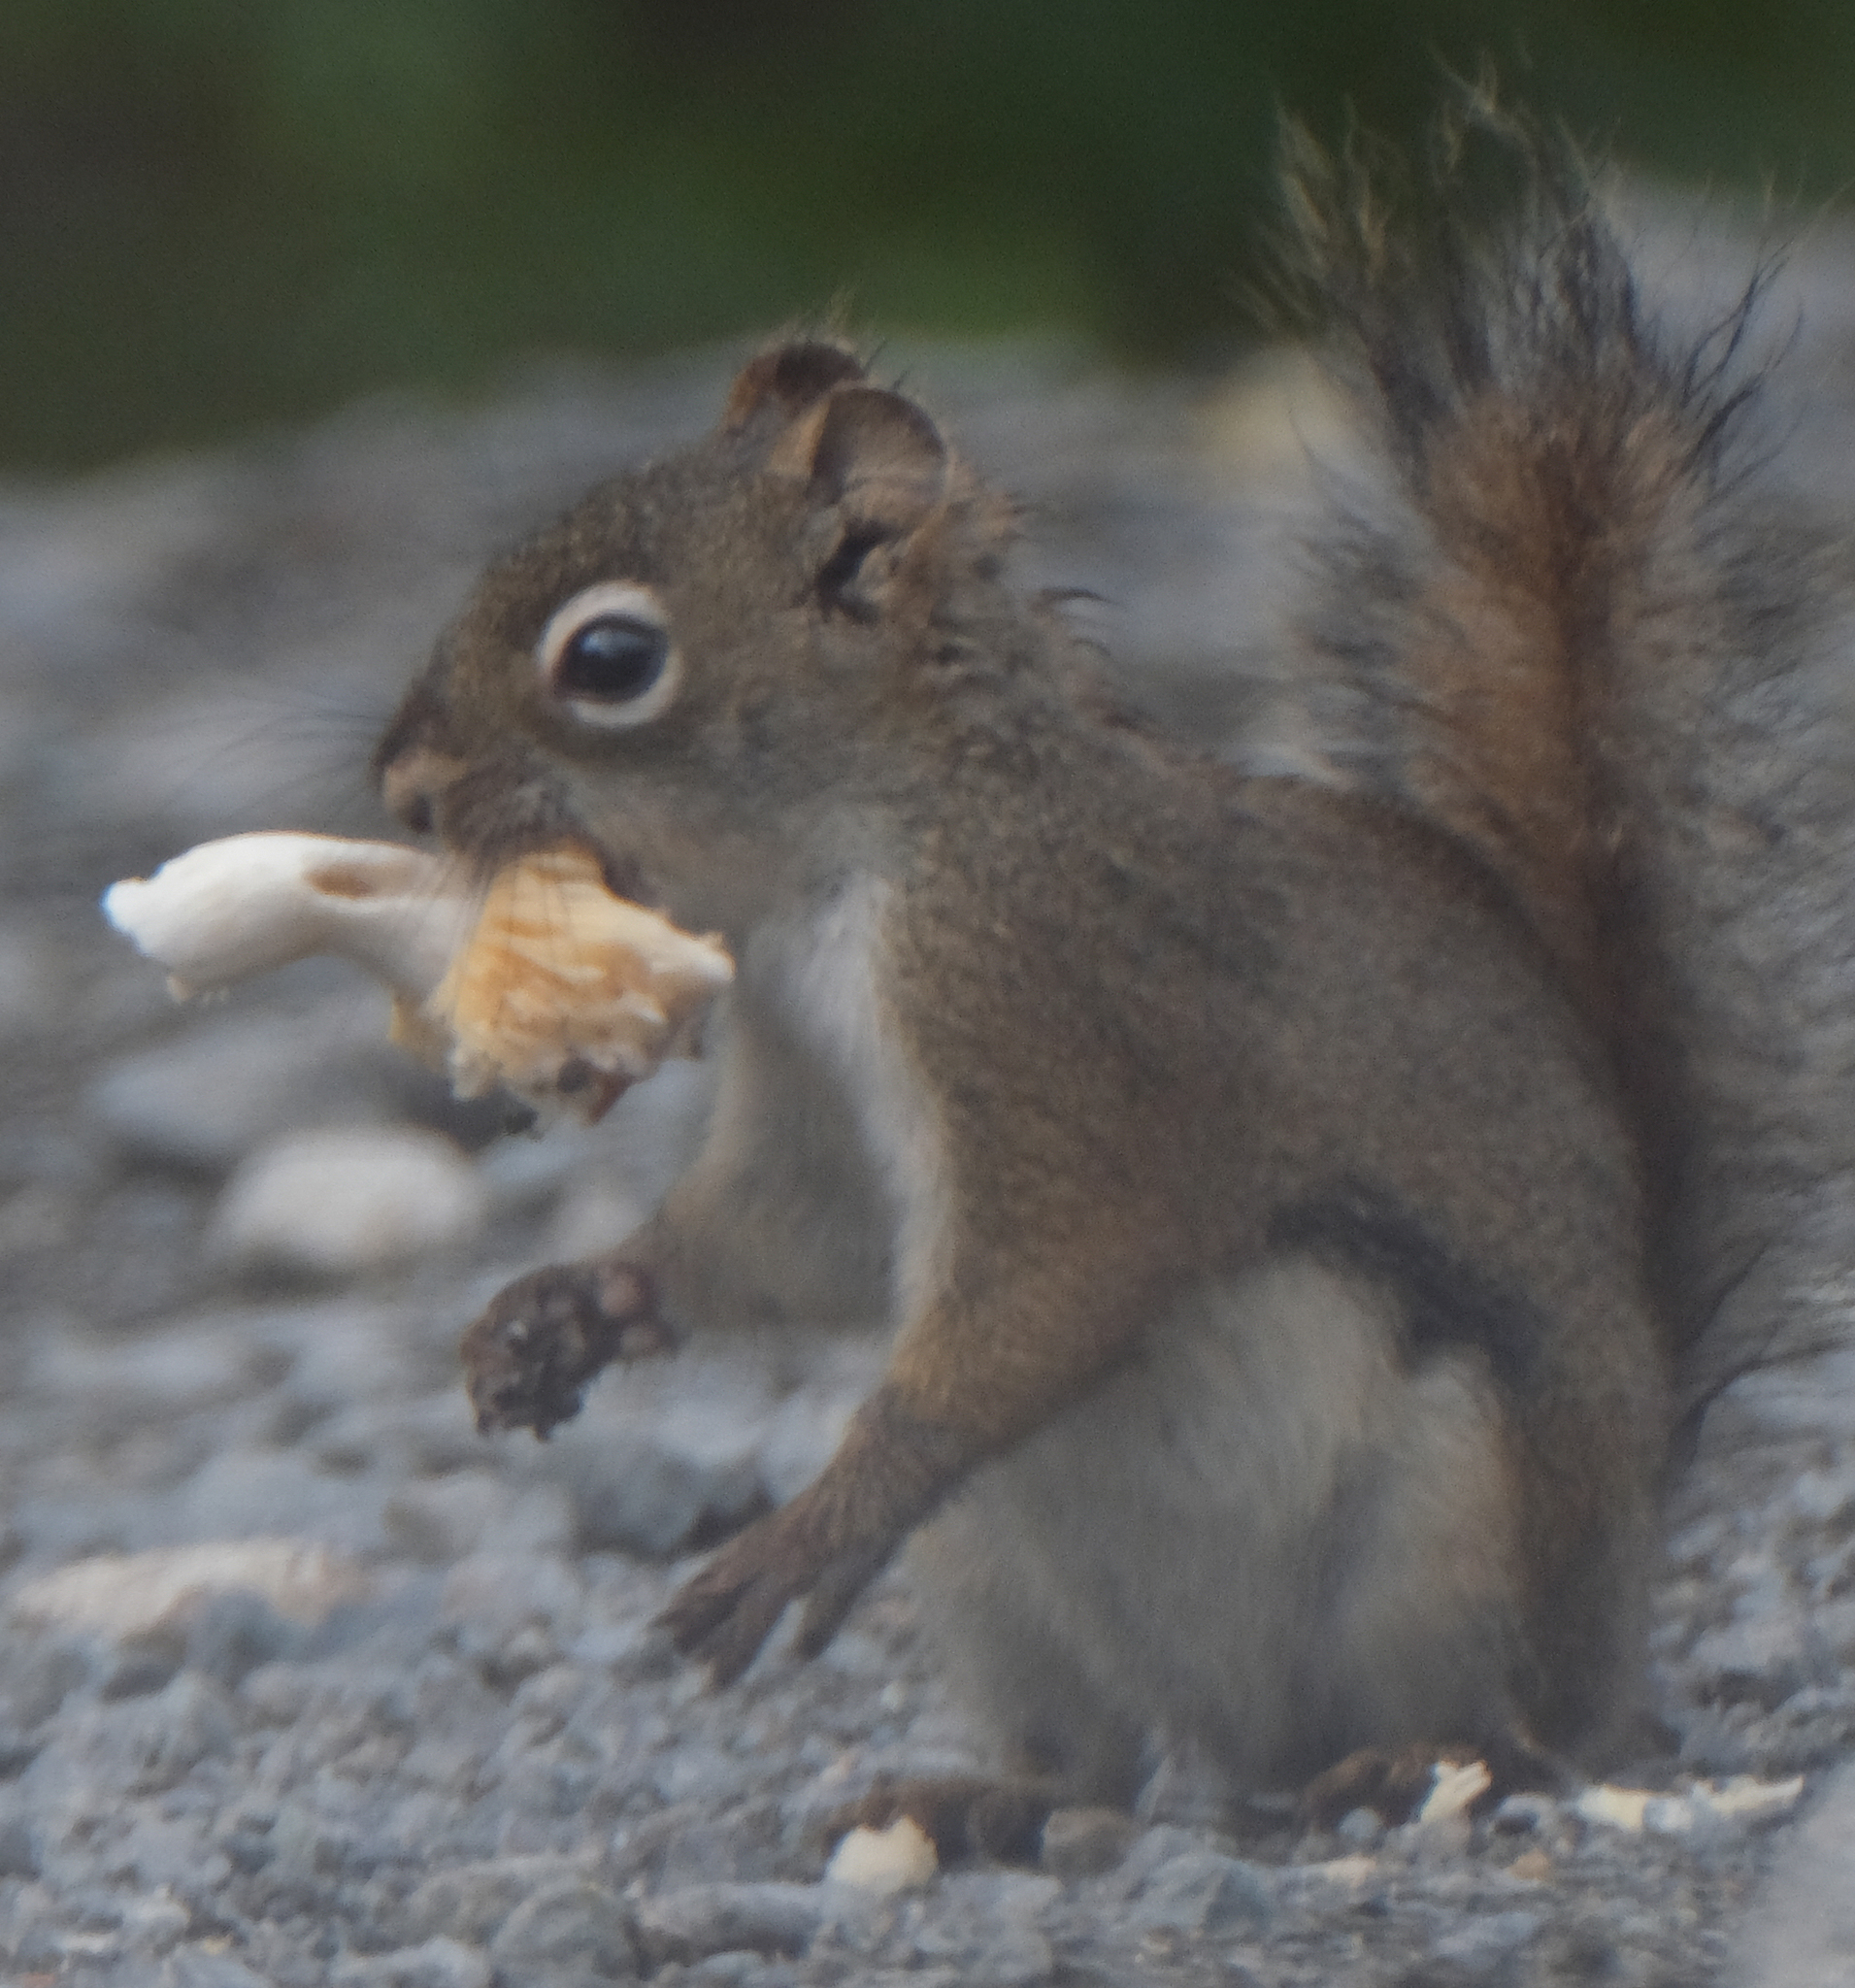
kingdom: Animalia
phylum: Chordata
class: Mammalia
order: Rodentia
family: Sciuridae
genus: Tamiasciurus
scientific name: Tamiasciurus hudsonicus
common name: Red squirrel
